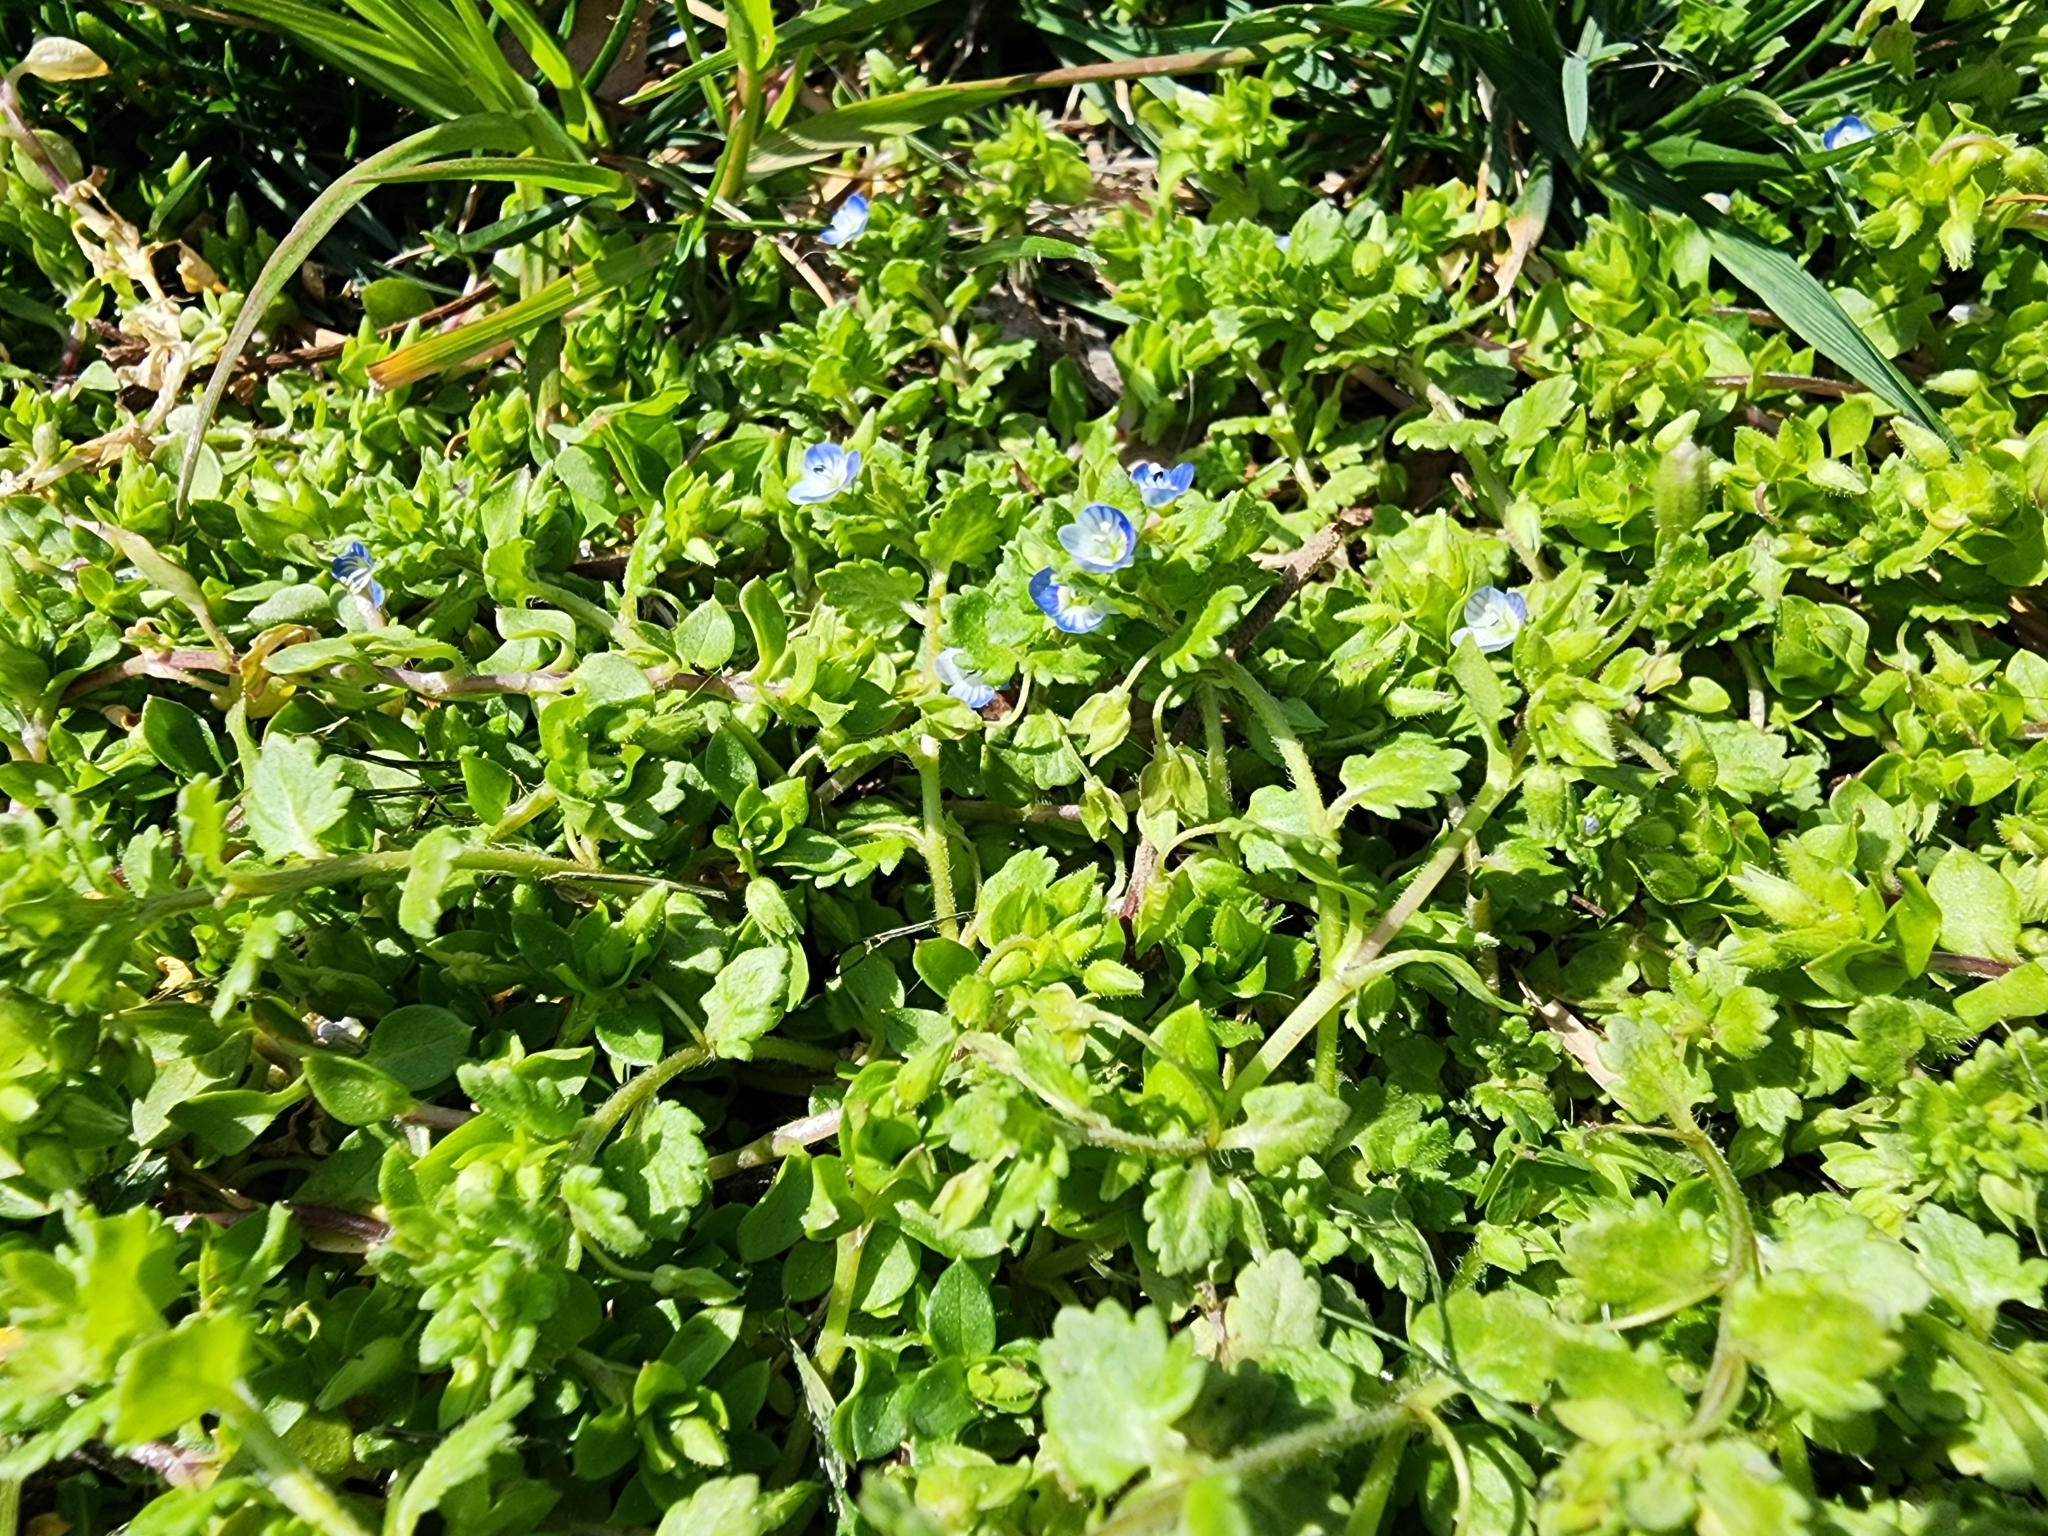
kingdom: Plantae
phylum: Tracheophyta
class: Magnoliopsida
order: Lamiales
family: Plantaginaceae
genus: Veronica
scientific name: Veronica polita
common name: Grey field-speedwell
